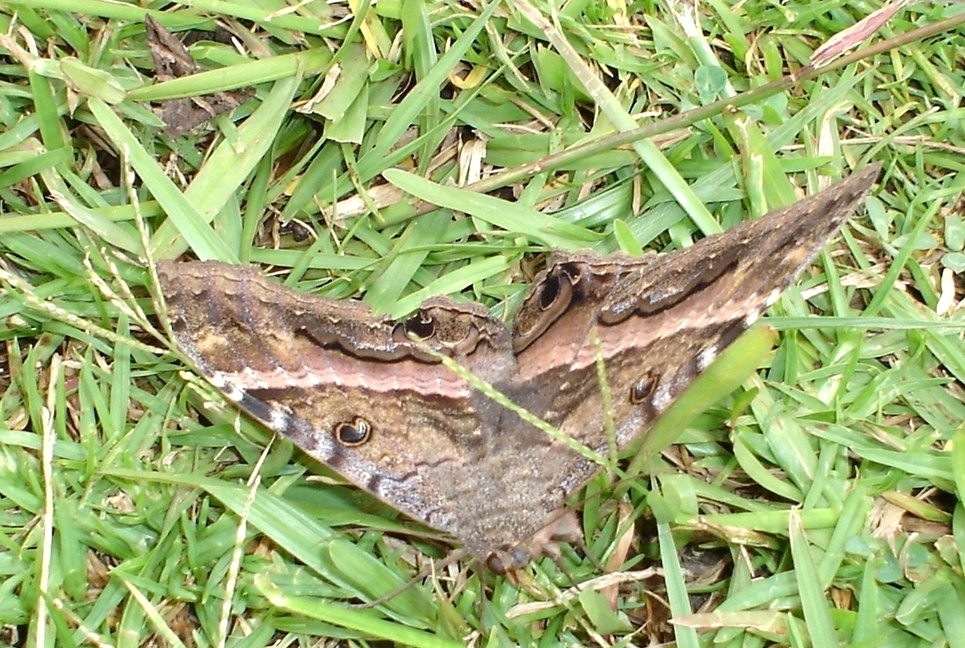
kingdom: Animalia
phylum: Arthropoda
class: Insecta
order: Lepidoptera
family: Erebidae
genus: Ascalapha
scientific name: Ascalapha odorata
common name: Black witch
